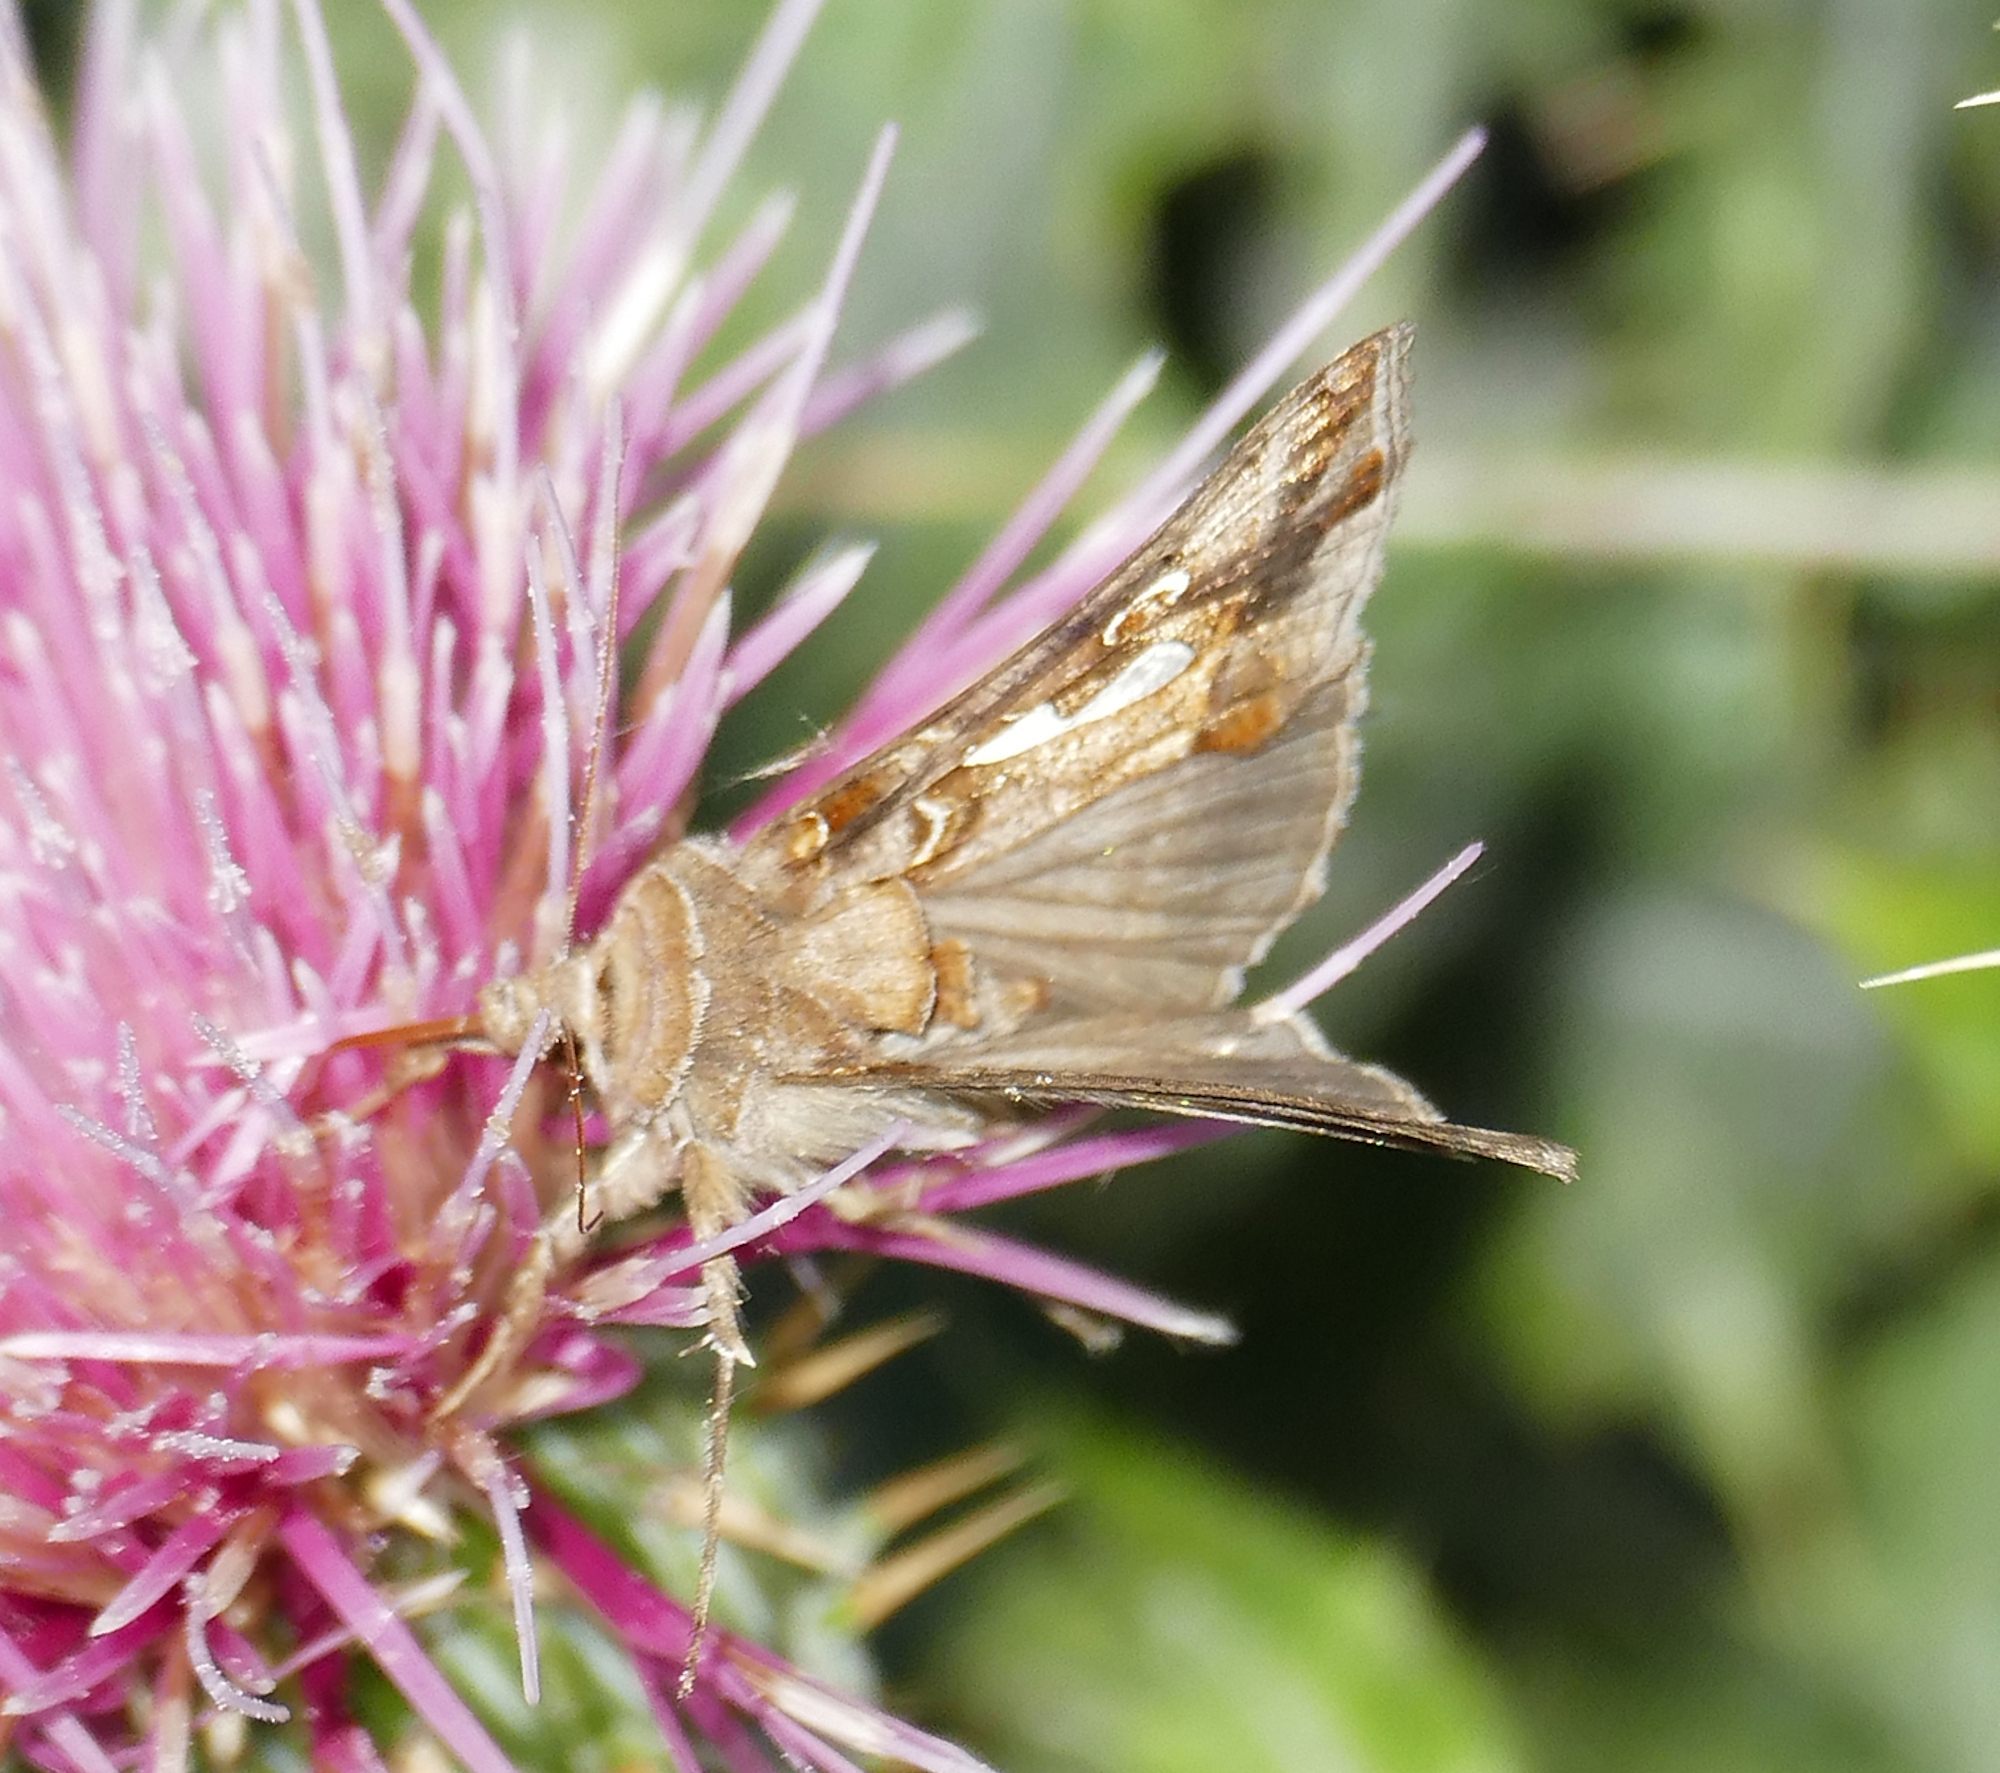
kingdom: Animalia
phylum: Arthropoda
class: Insecta
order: Lepidoptera
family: Noctuidae
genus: Megalographa
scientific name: Megalographa biloba
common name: Cutworm
